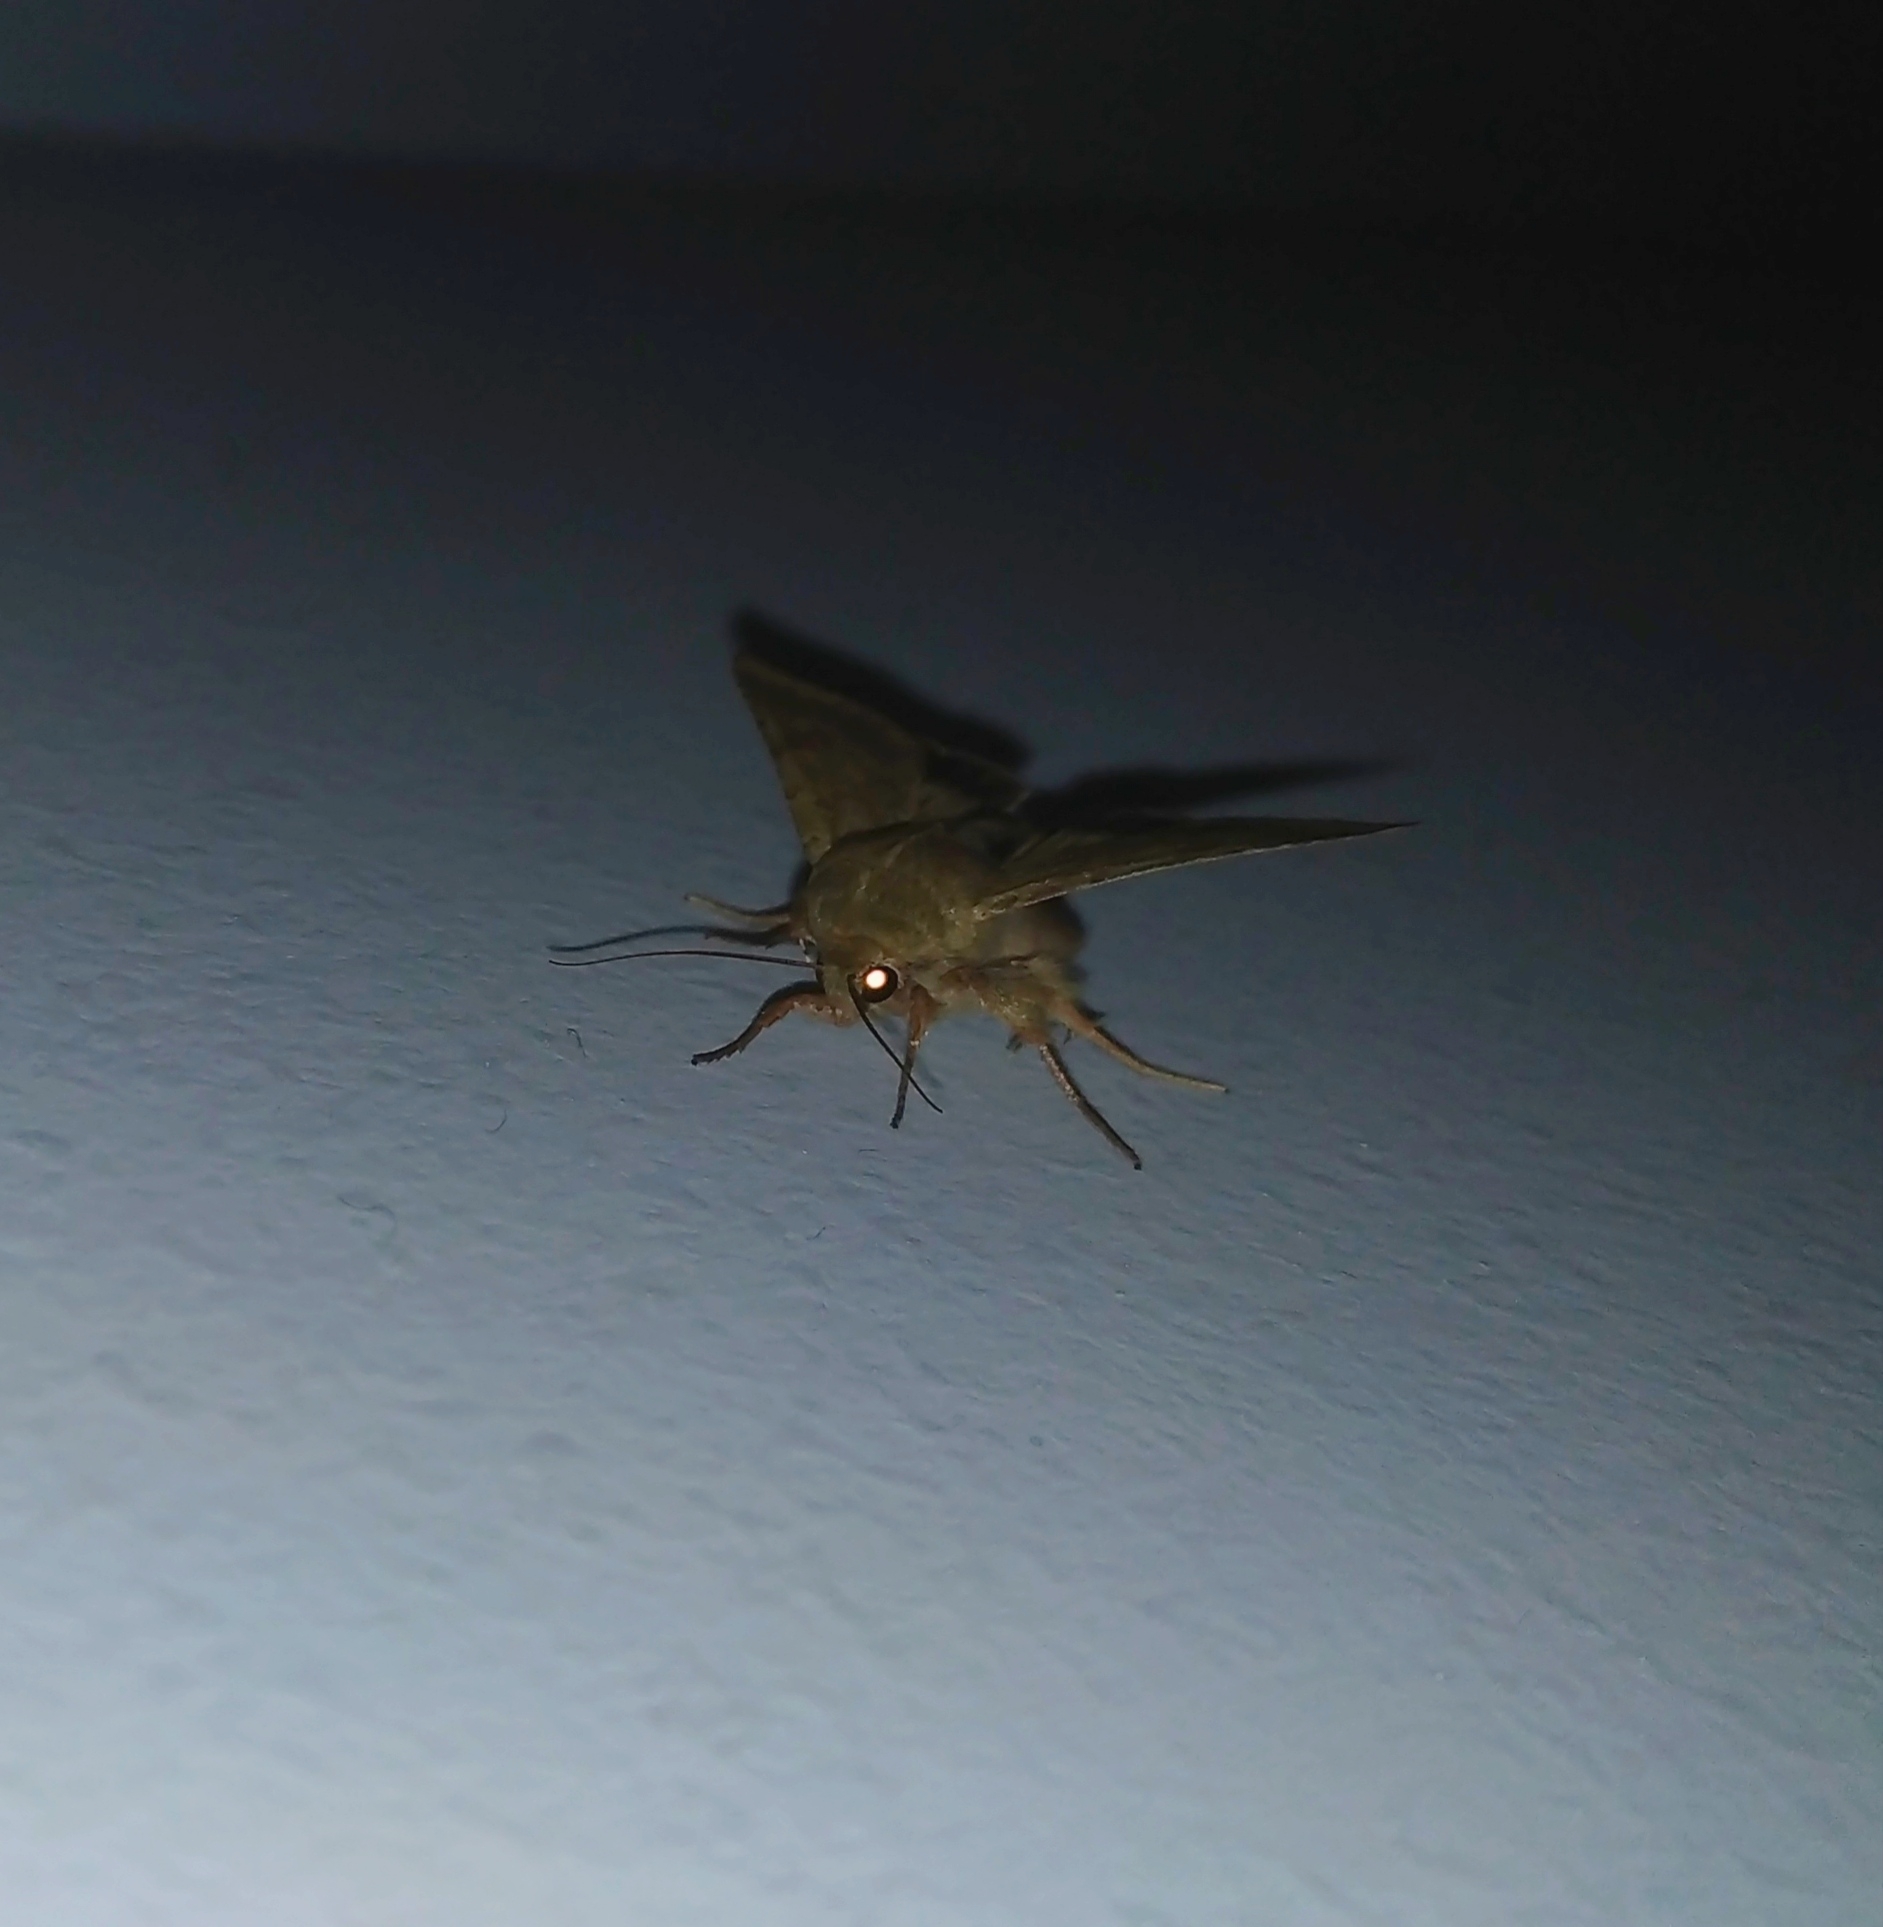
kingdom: Animalia
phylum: Arthropoda
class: Insecta
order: Lepidoptera
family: Noctuidae
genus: Helicoverpa
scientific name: Helicoverpa armigera
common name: Cotton bollworm
